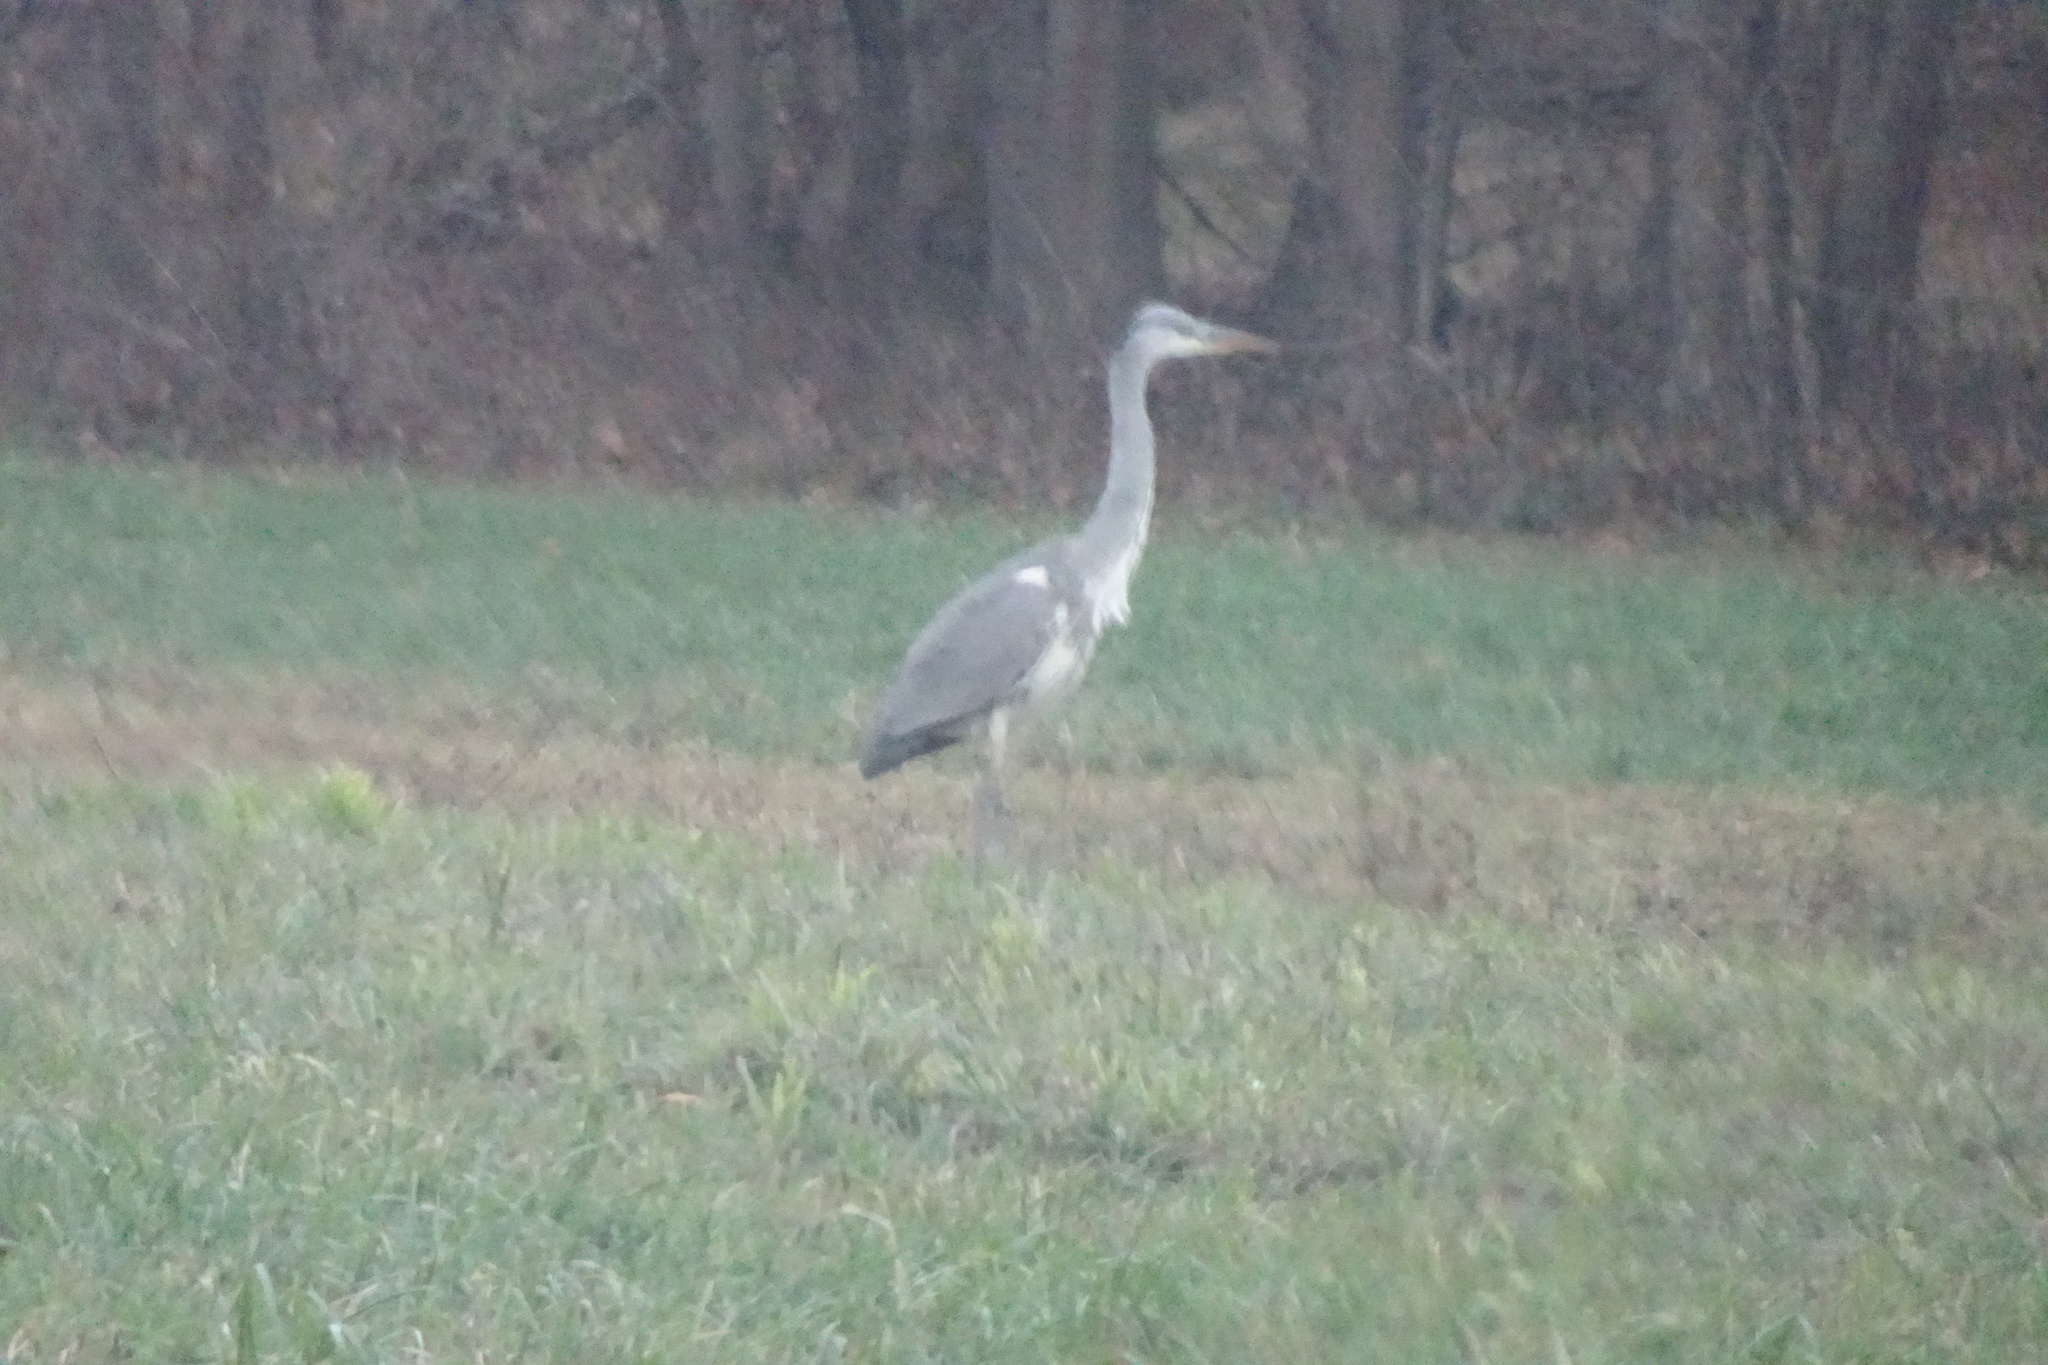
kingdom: Animalia
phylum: Chordata
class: Aves
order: Pelecaniformes
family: Ardeidae
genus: Ardea
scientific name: Ardea cinerea
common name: Grey heron
